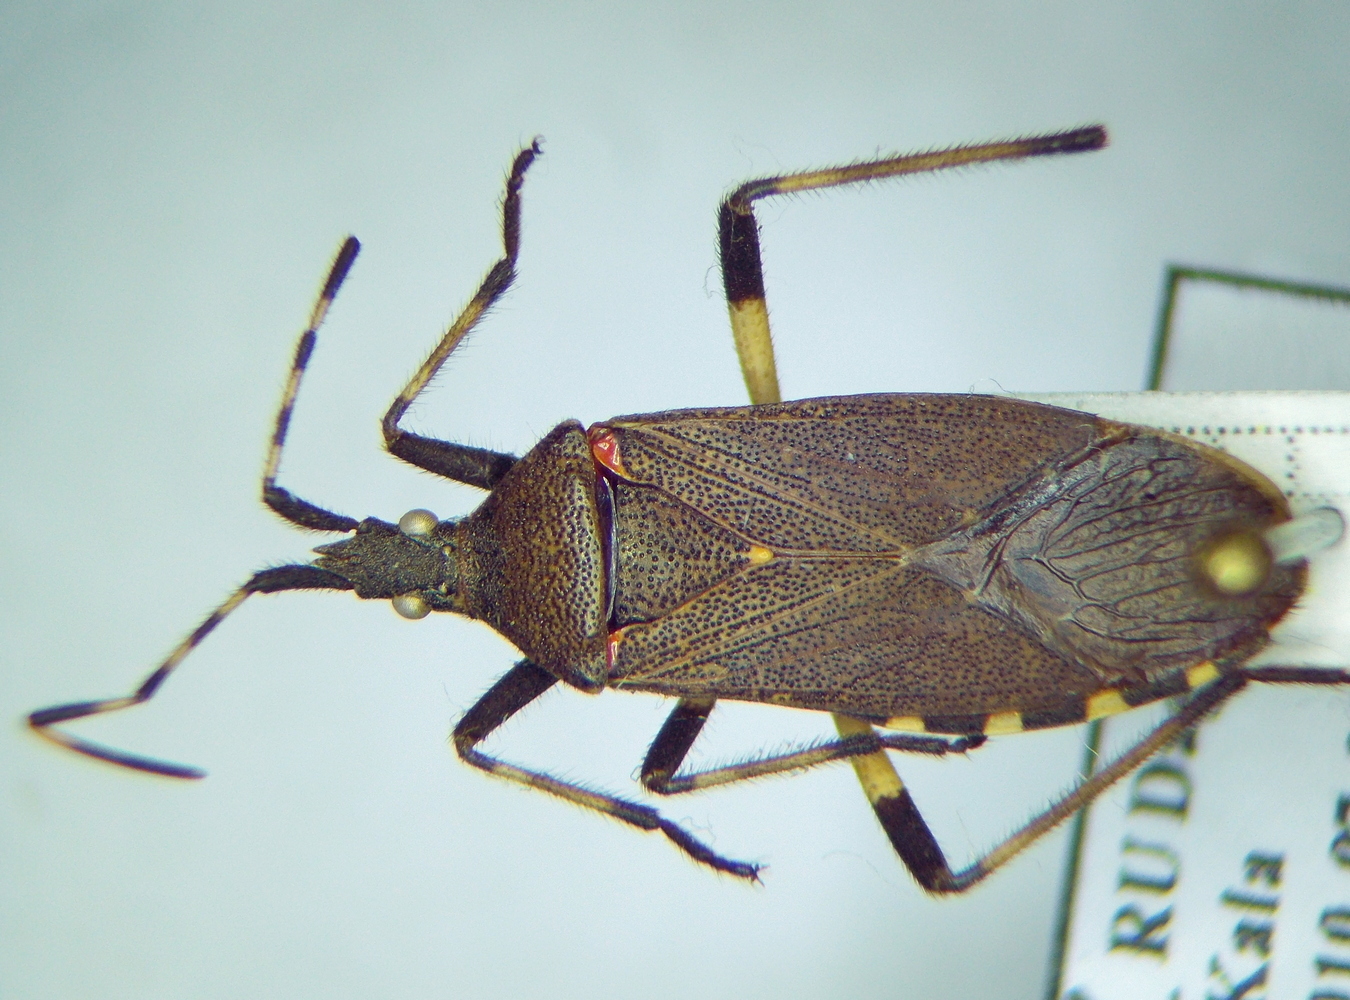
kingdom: Animalia
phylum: Arthropoda
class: Insecta
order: Hemiptera
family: Stenocephalidae
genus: Dicranocephalus
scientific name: Dicranocephalus agilis
